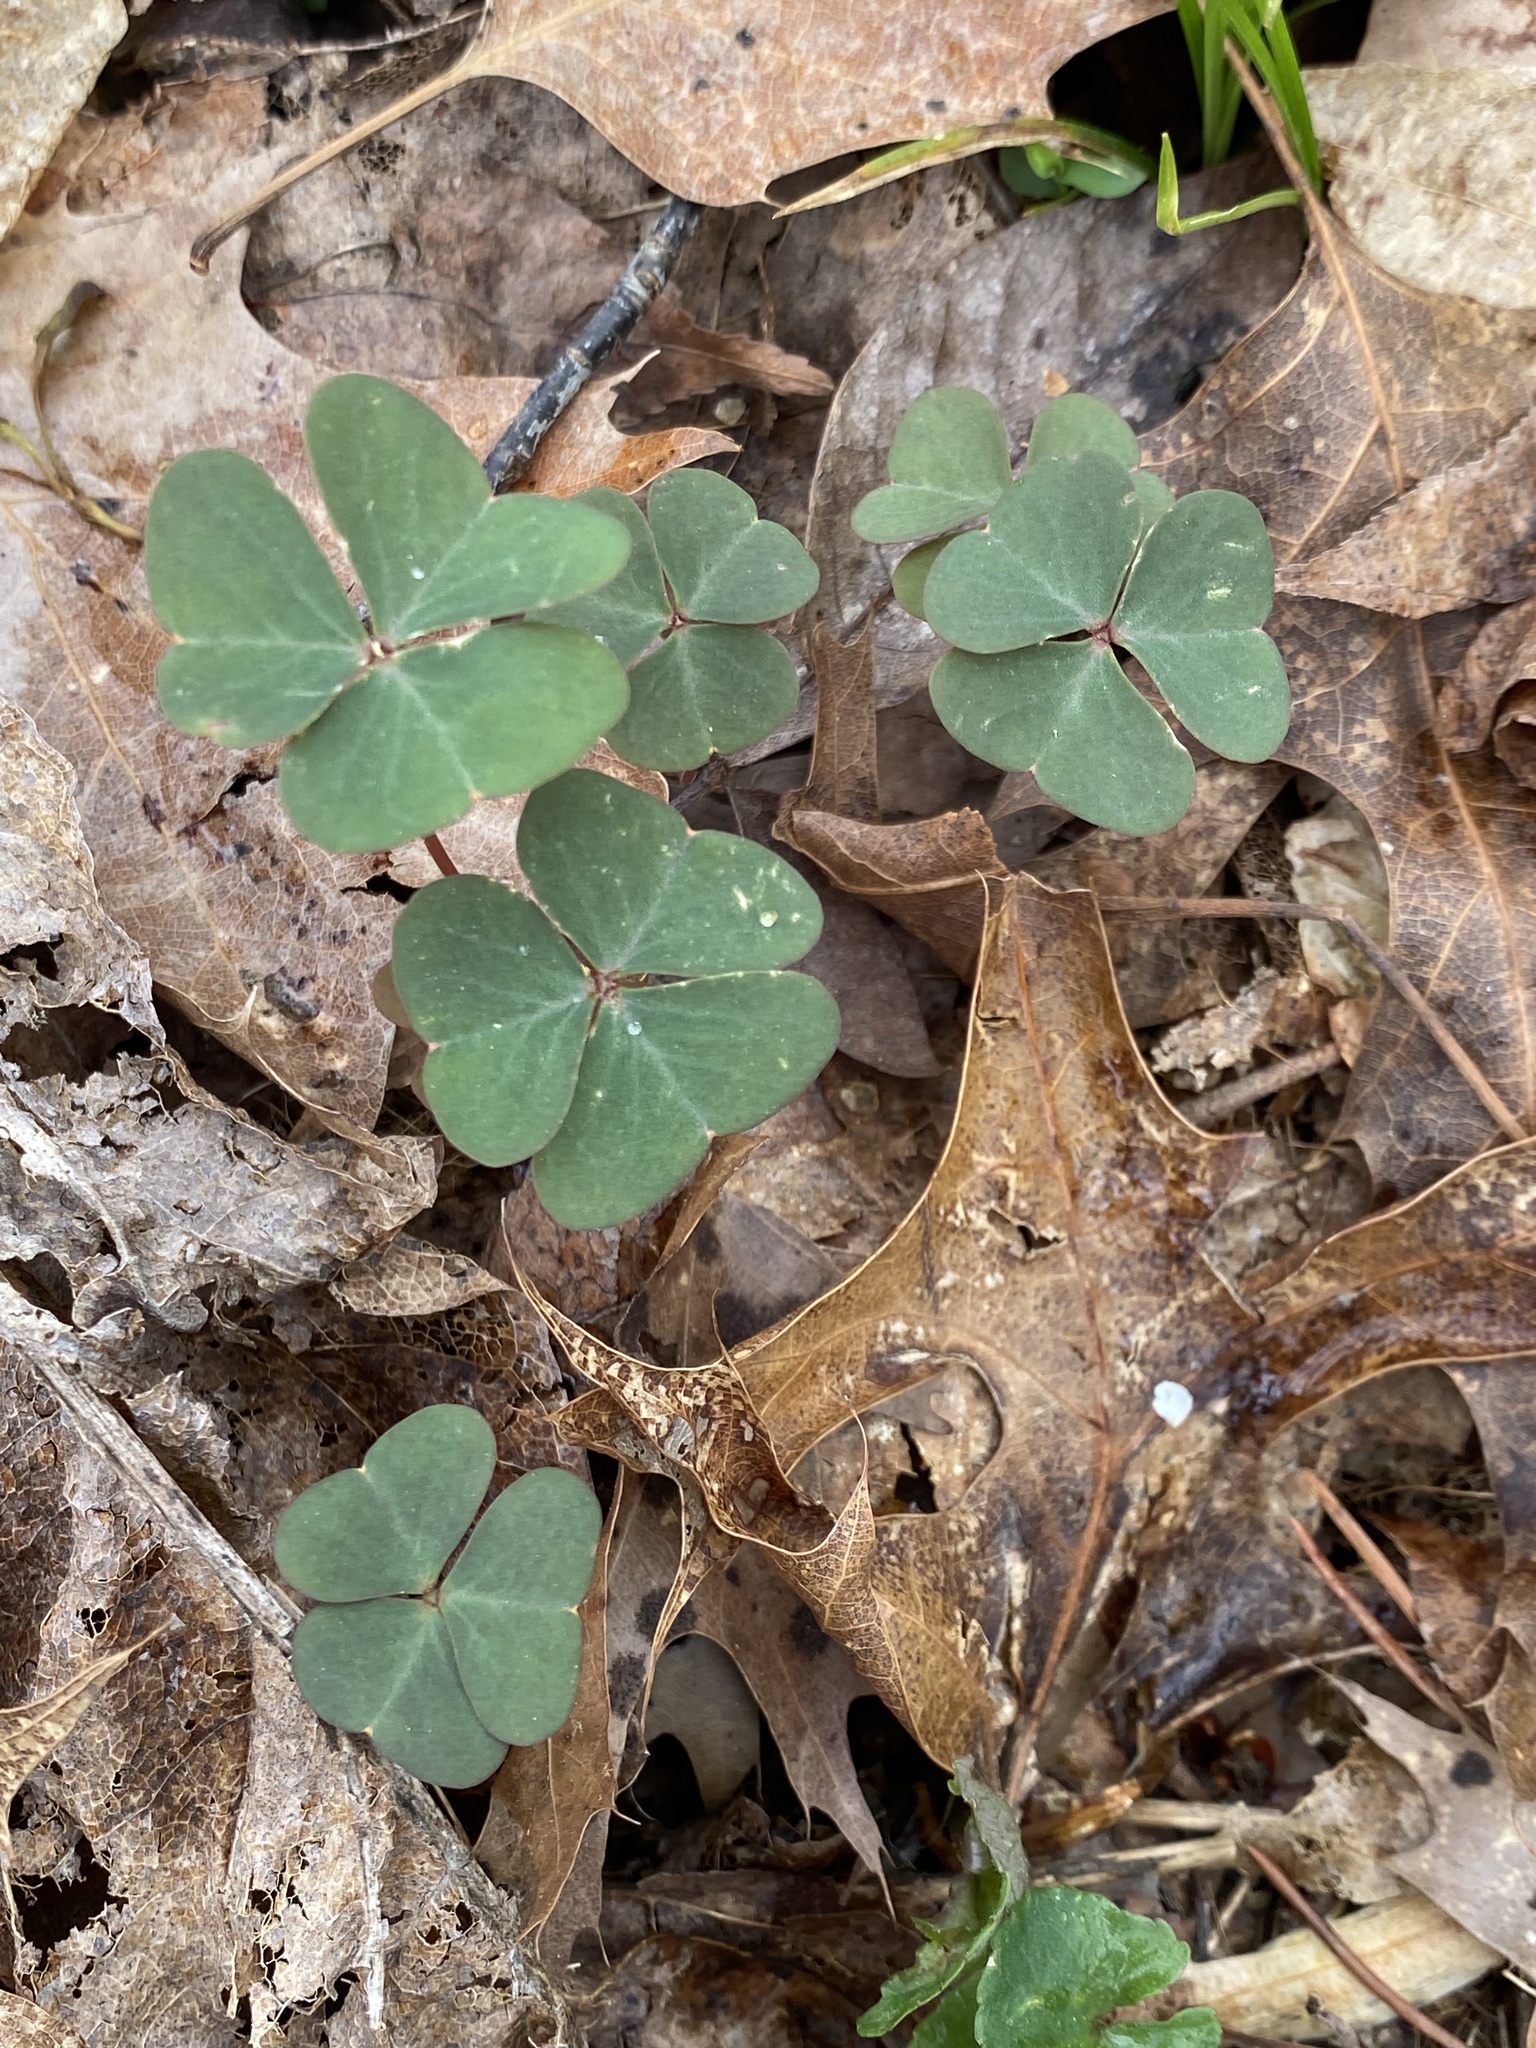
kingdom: Plantae
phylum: Tracheophyta
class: Magnoliopsida
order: Oxalidales
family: Oxalidaceae
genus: Oxalis
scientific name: Oxalis violacea
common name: Violet wood-sorrel
